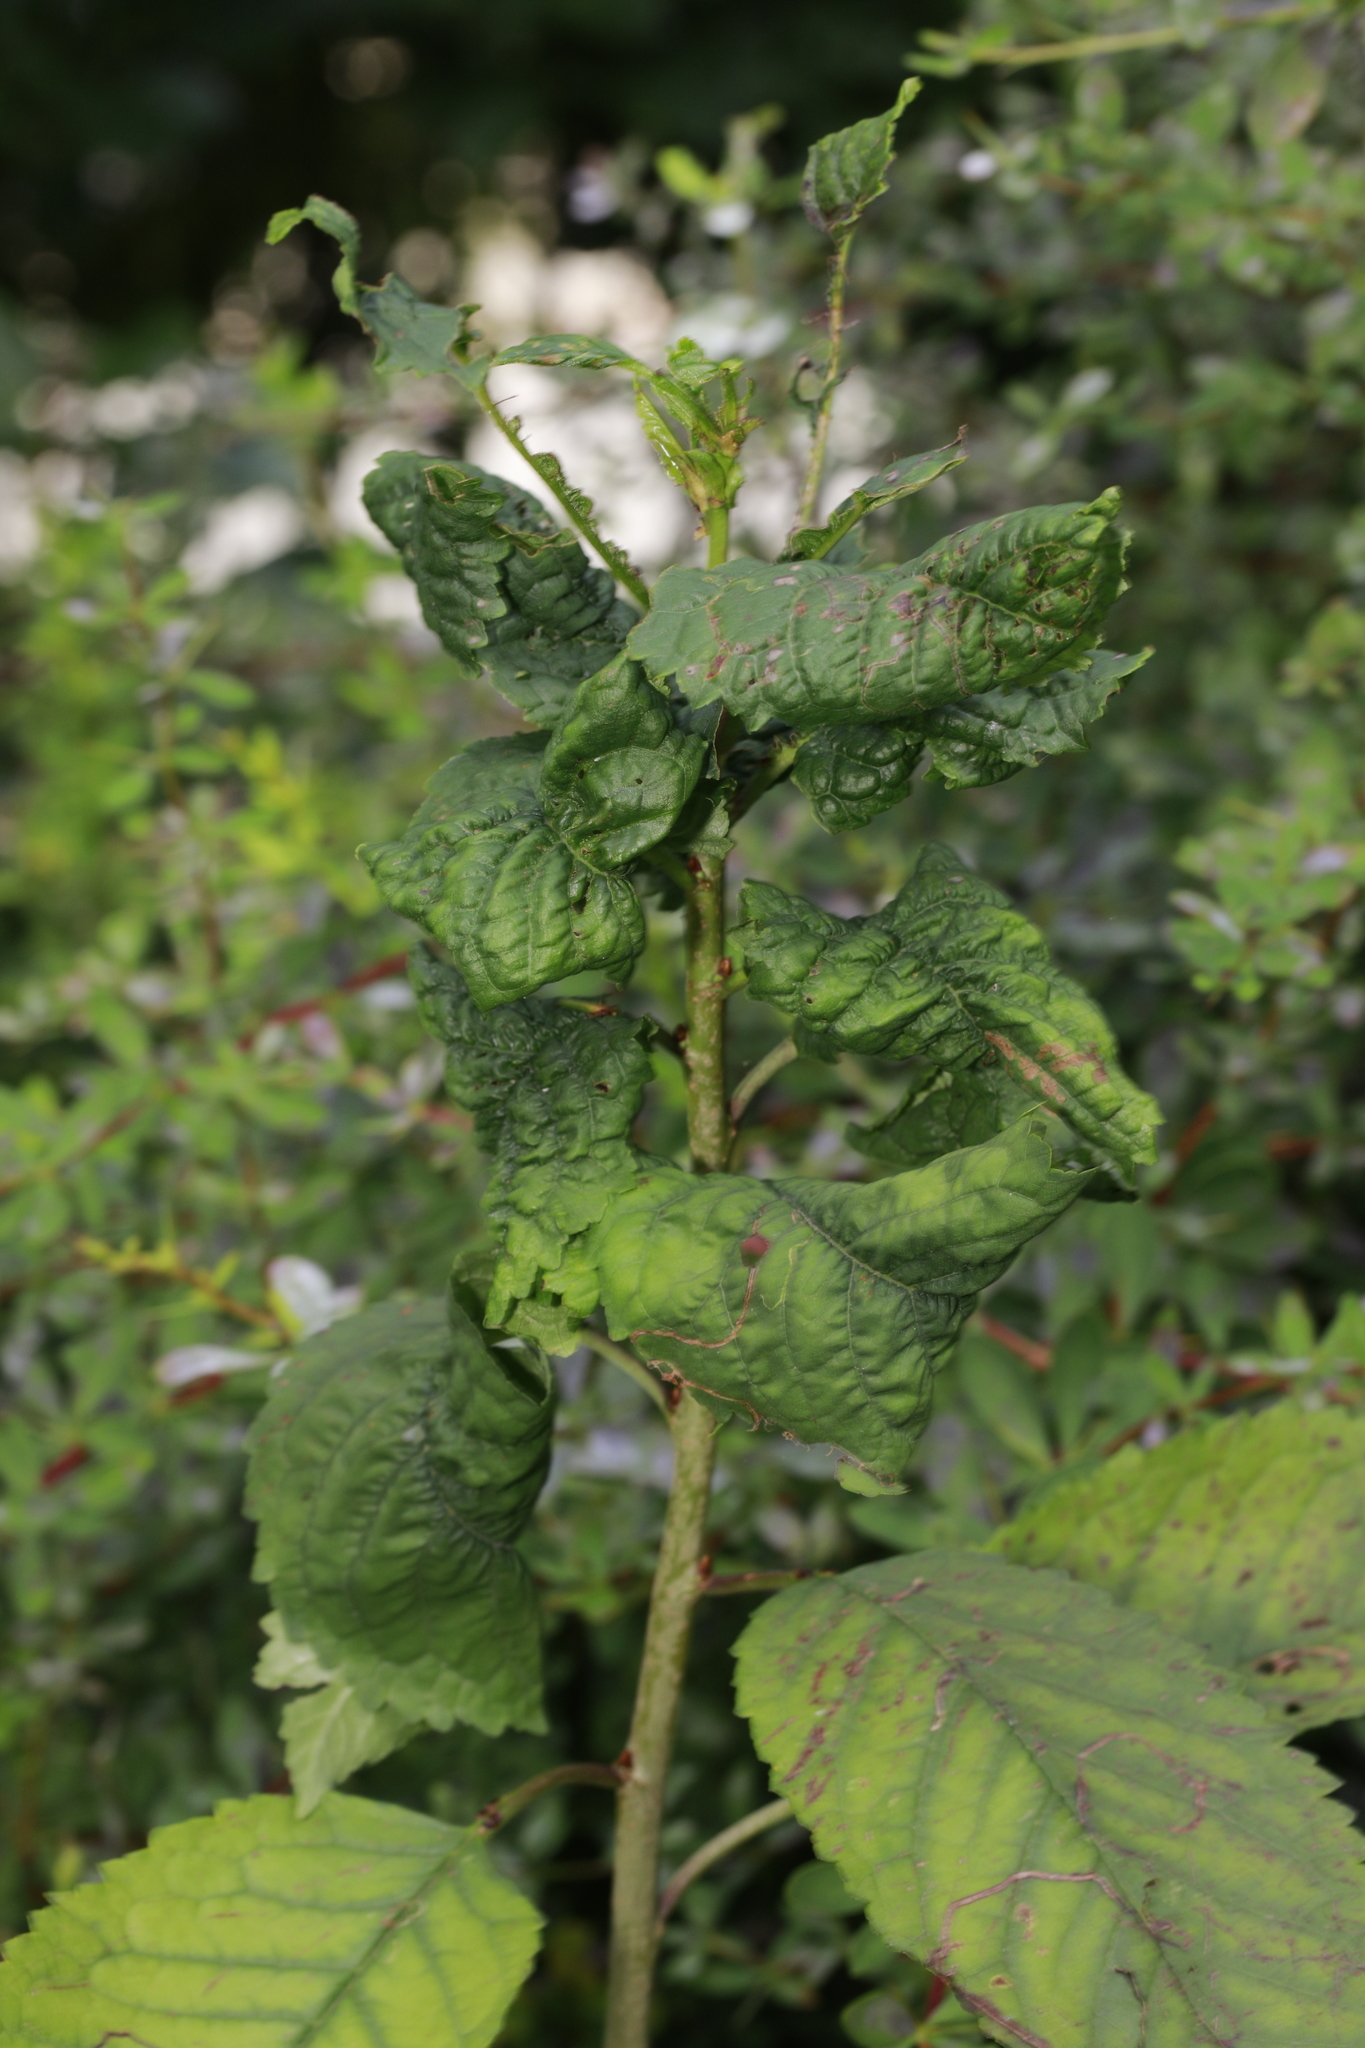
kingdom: Animalia
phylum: Arthropoda
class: Insecta
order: Hemiptera
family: Aphididae
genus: Myzus
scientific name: Myzus cerasi
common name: Black cherry aphid
